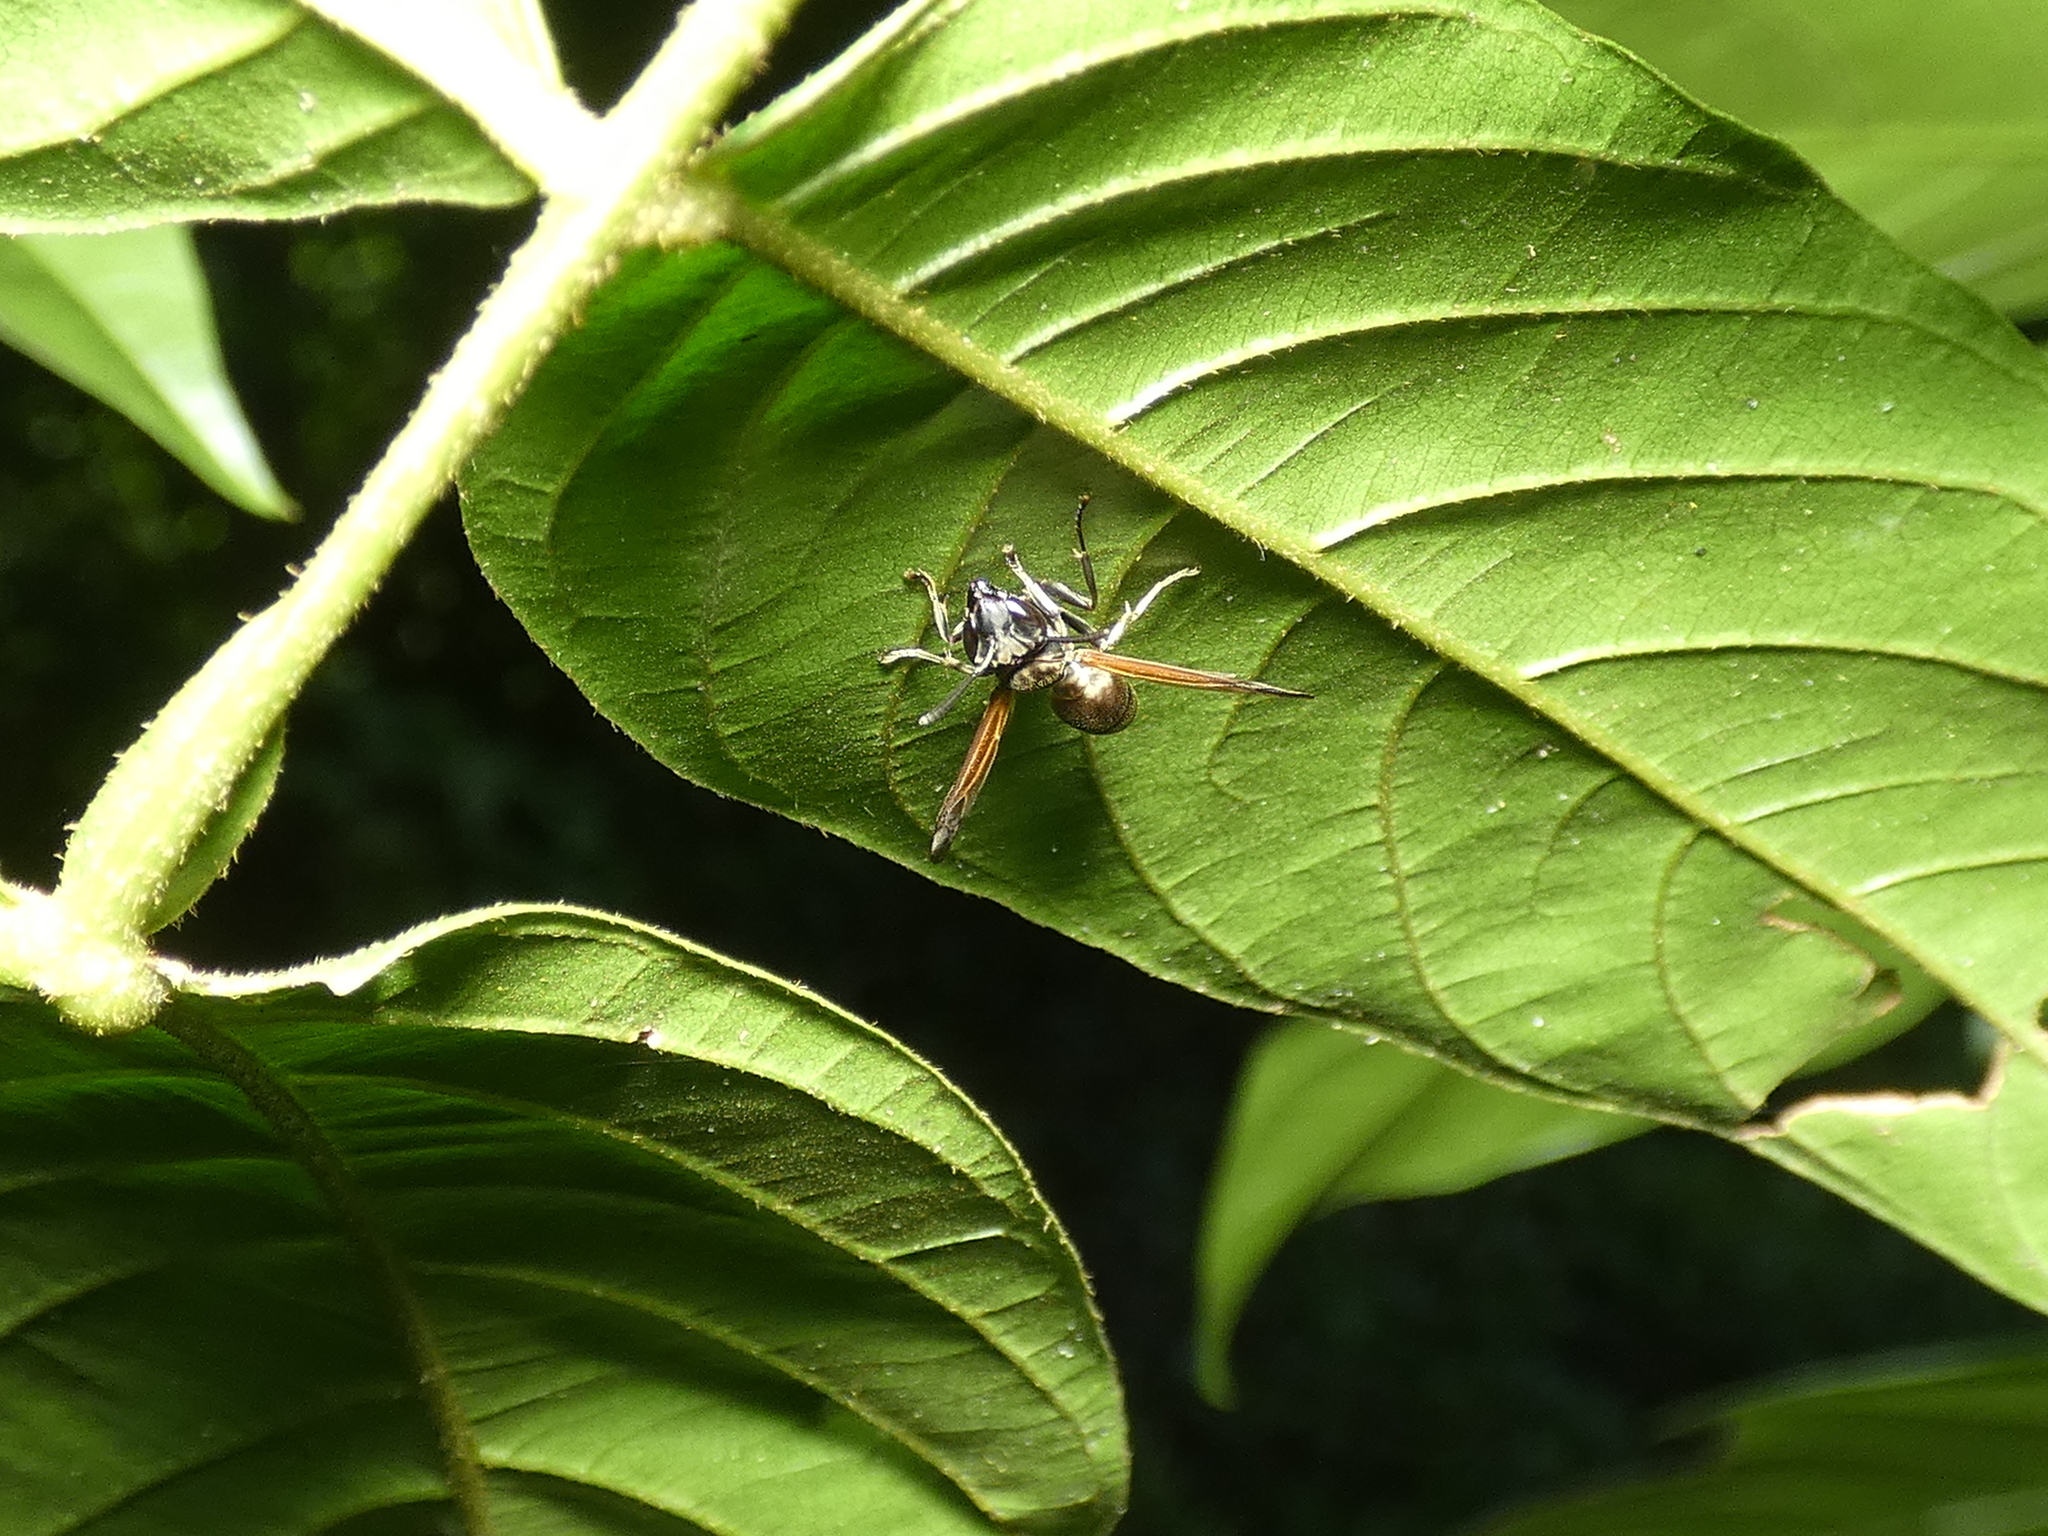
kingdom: Animalia
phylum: Arthropoda
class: Insecta
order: Hymenoptera
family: Eumenidae
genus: Polybia
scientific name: Polybia rejecta
